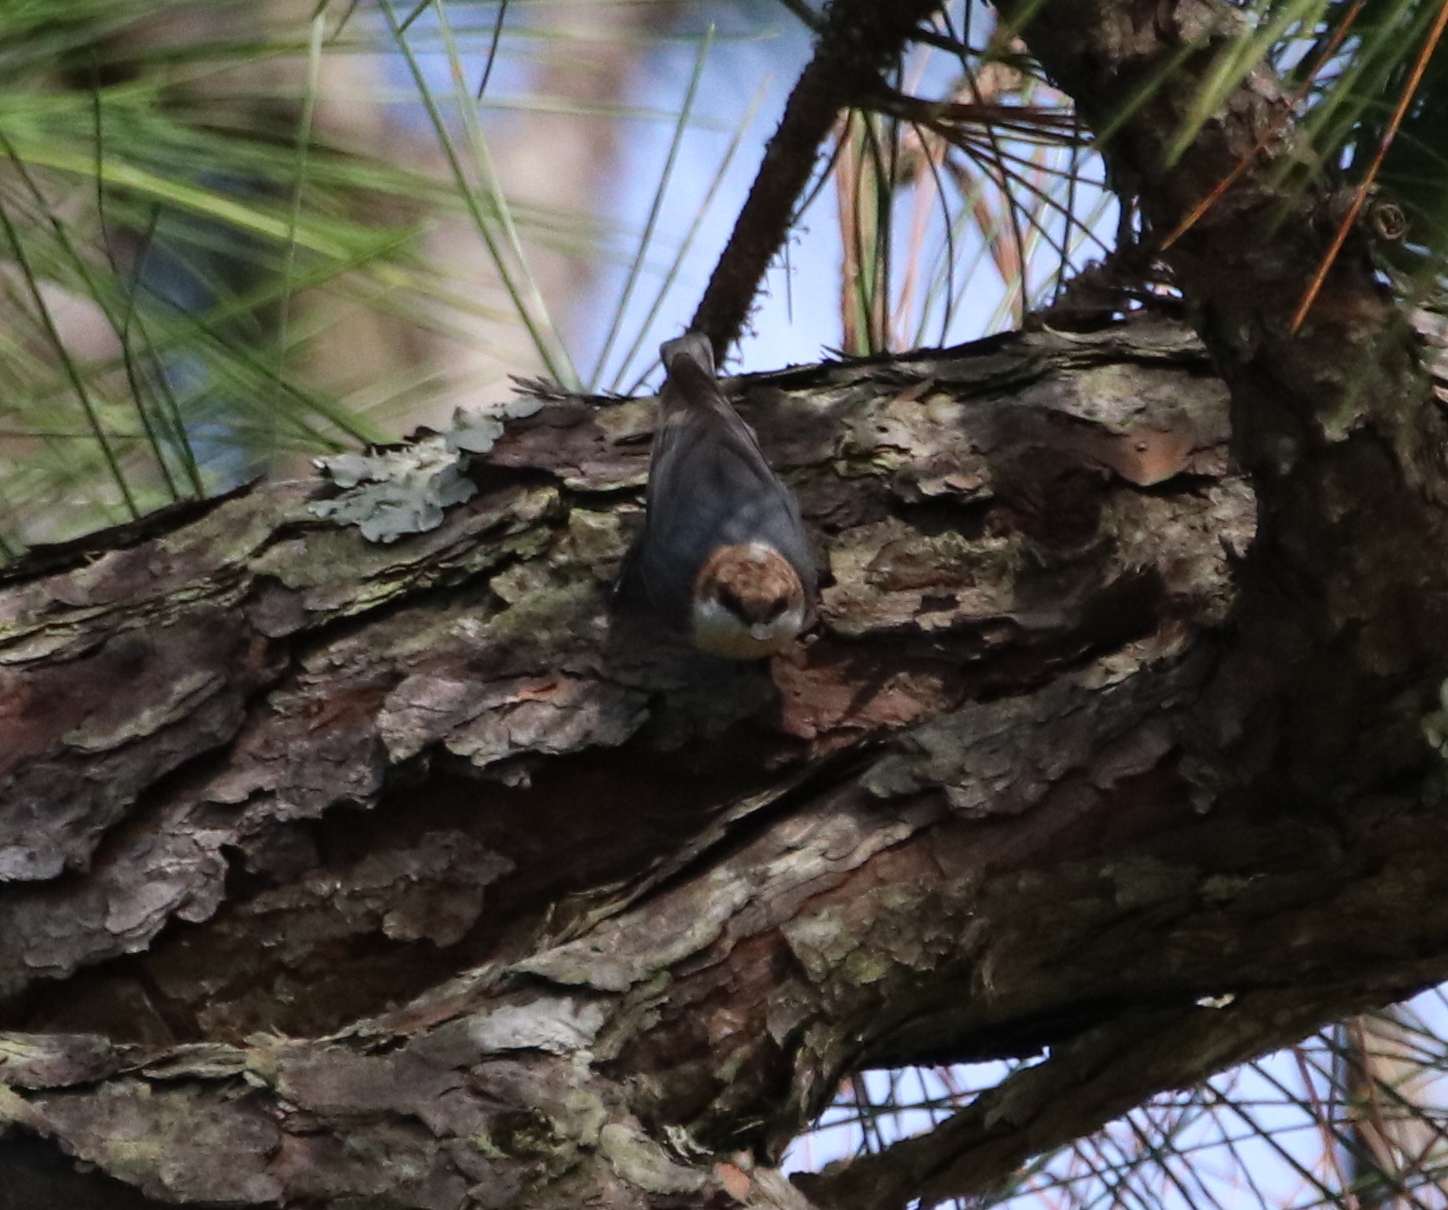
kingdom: Animalia
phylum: Chordata
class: Aves
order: Passeriformes
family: Sittidae
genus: Sitta
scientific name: Sitta pusilla
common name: Brown-headed nuthatch
